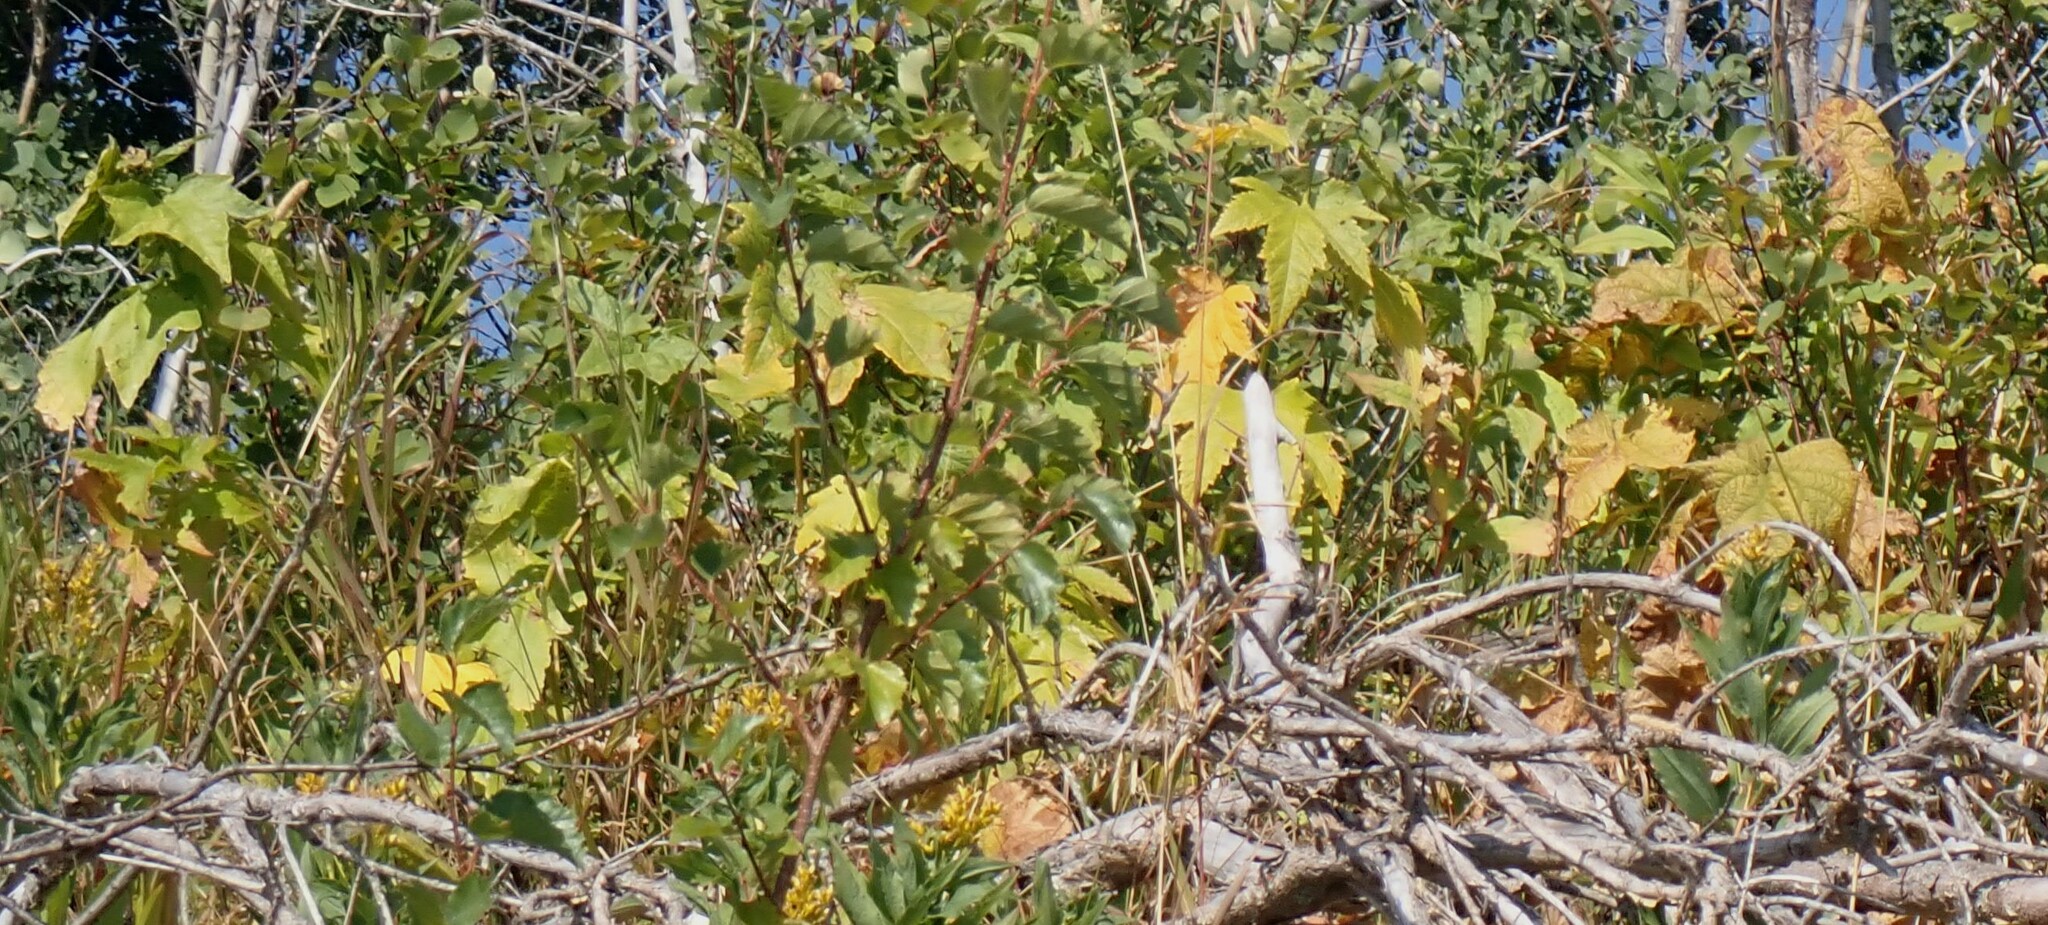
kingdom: Plantae
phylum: Tracheophyta
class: Magnoliopsida
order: Malvales
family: Malvaceae
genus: Iliamna
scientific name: Iliamna rivularis
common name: Wild hollyhock
